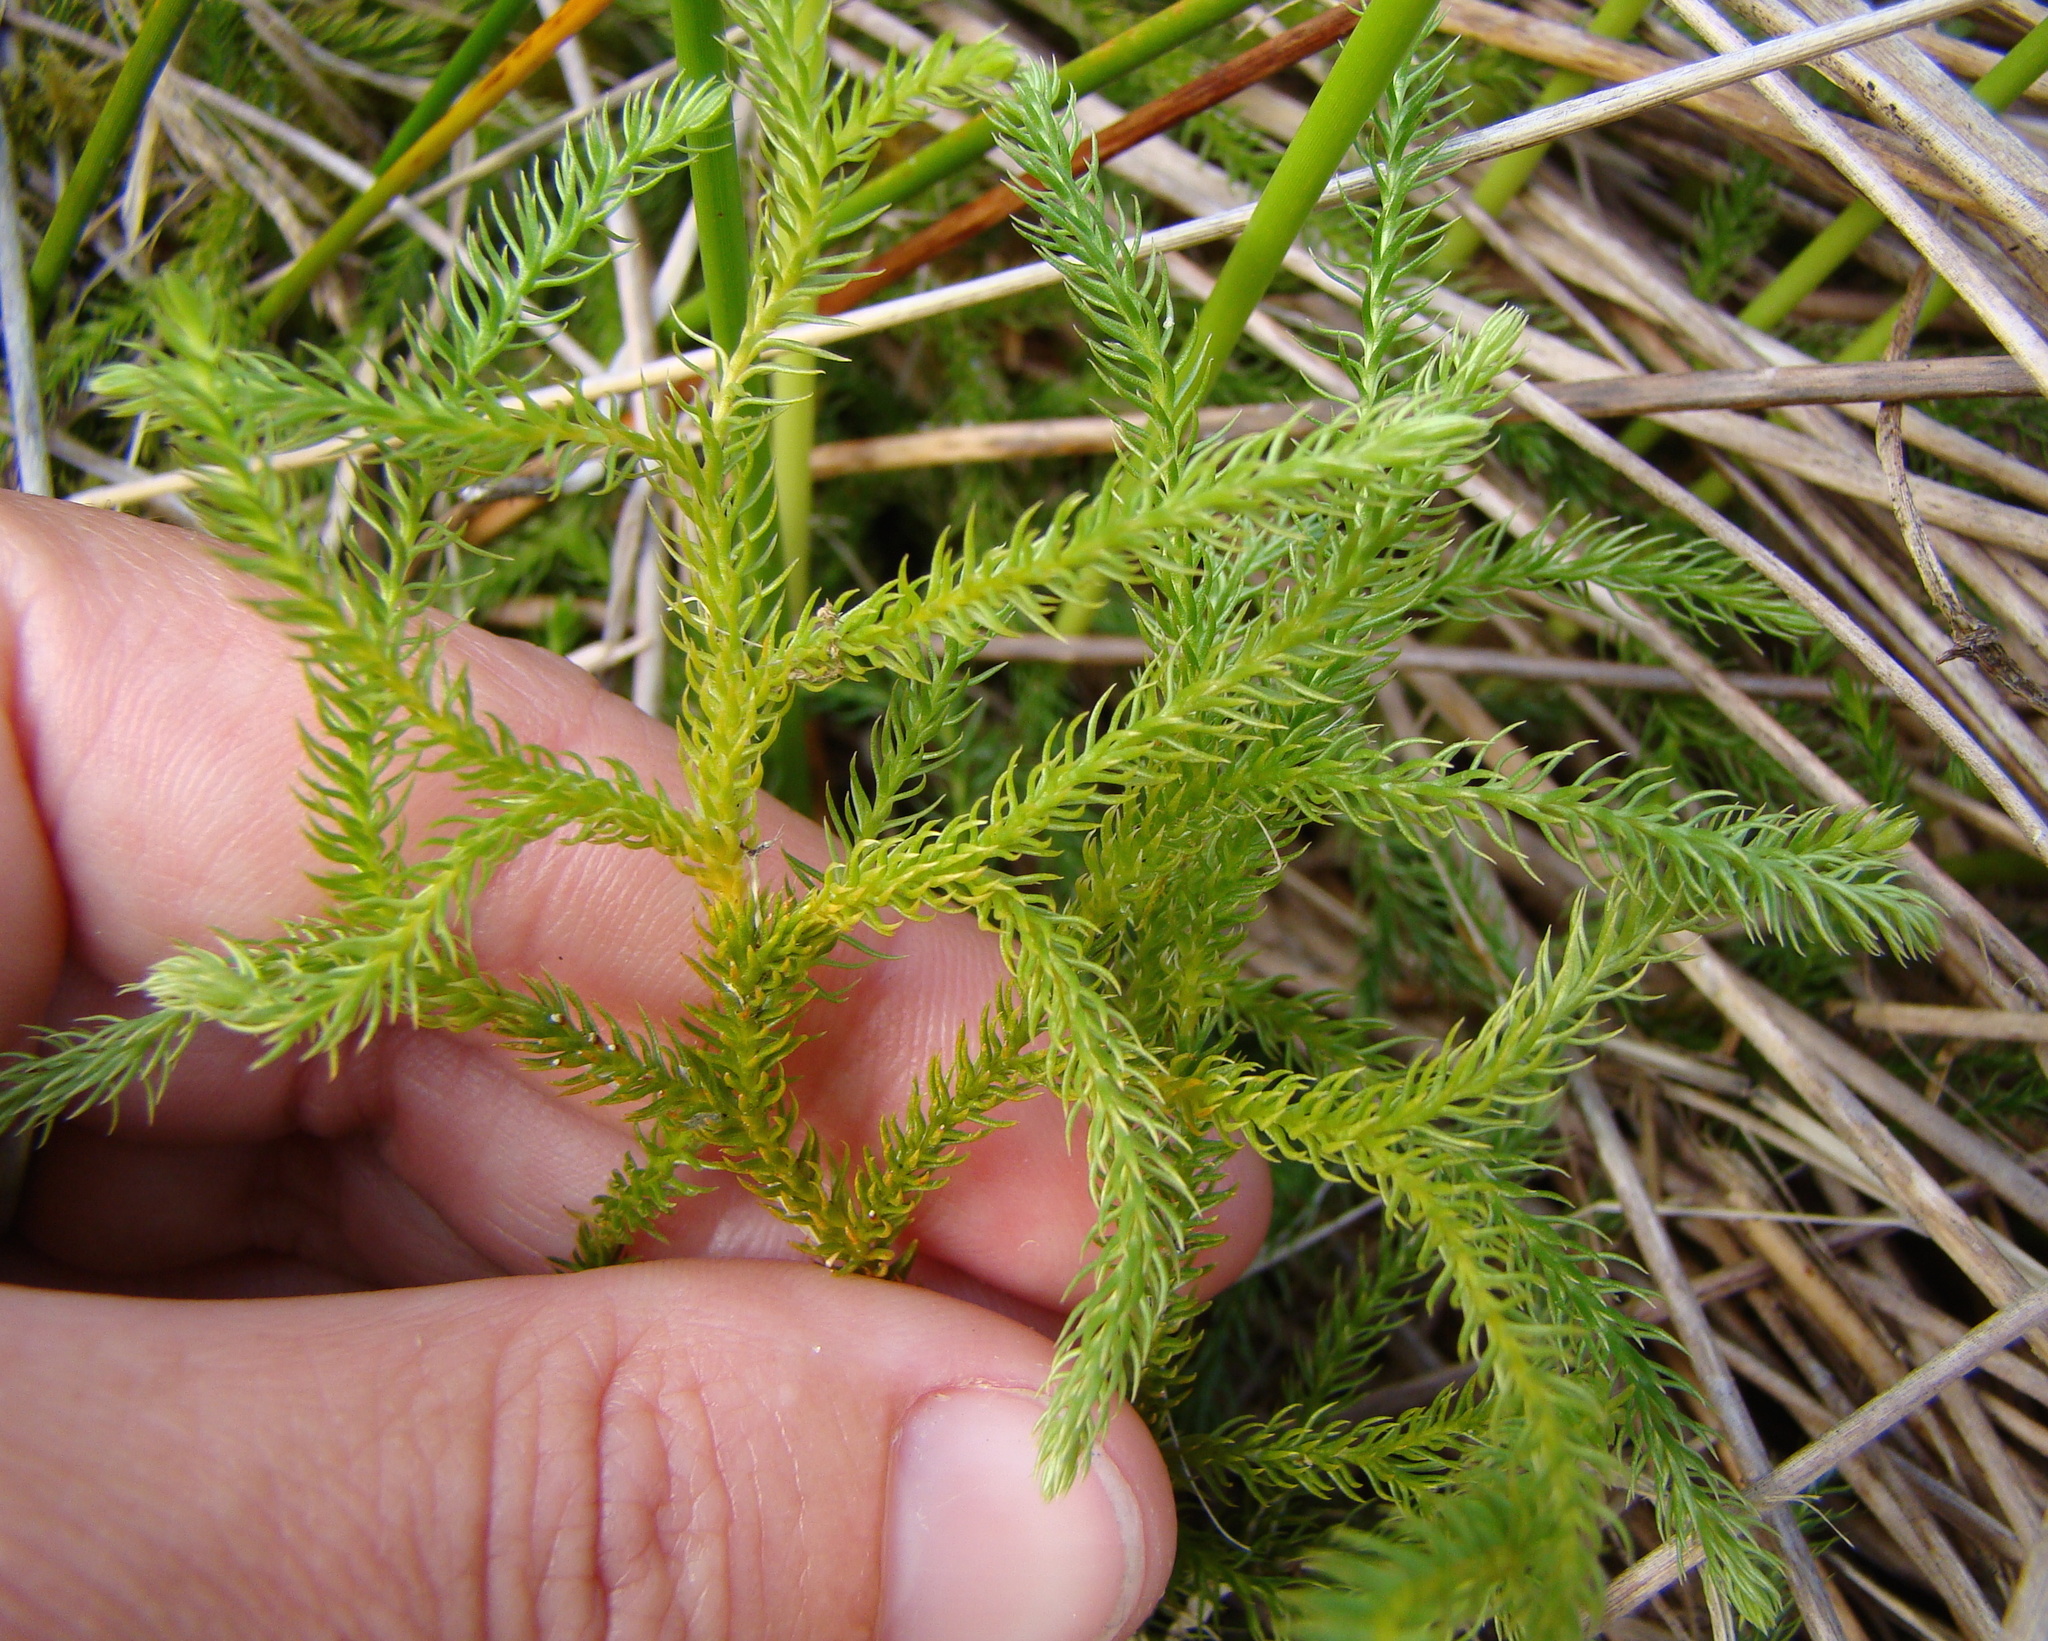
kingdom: Plantae
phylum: Tracheophyta
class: Lycopodiopsida
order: Lycopodiales
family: Lycopodiaceae
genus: Austrolycopodium
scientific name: Austrolycopodium fastigiatum
